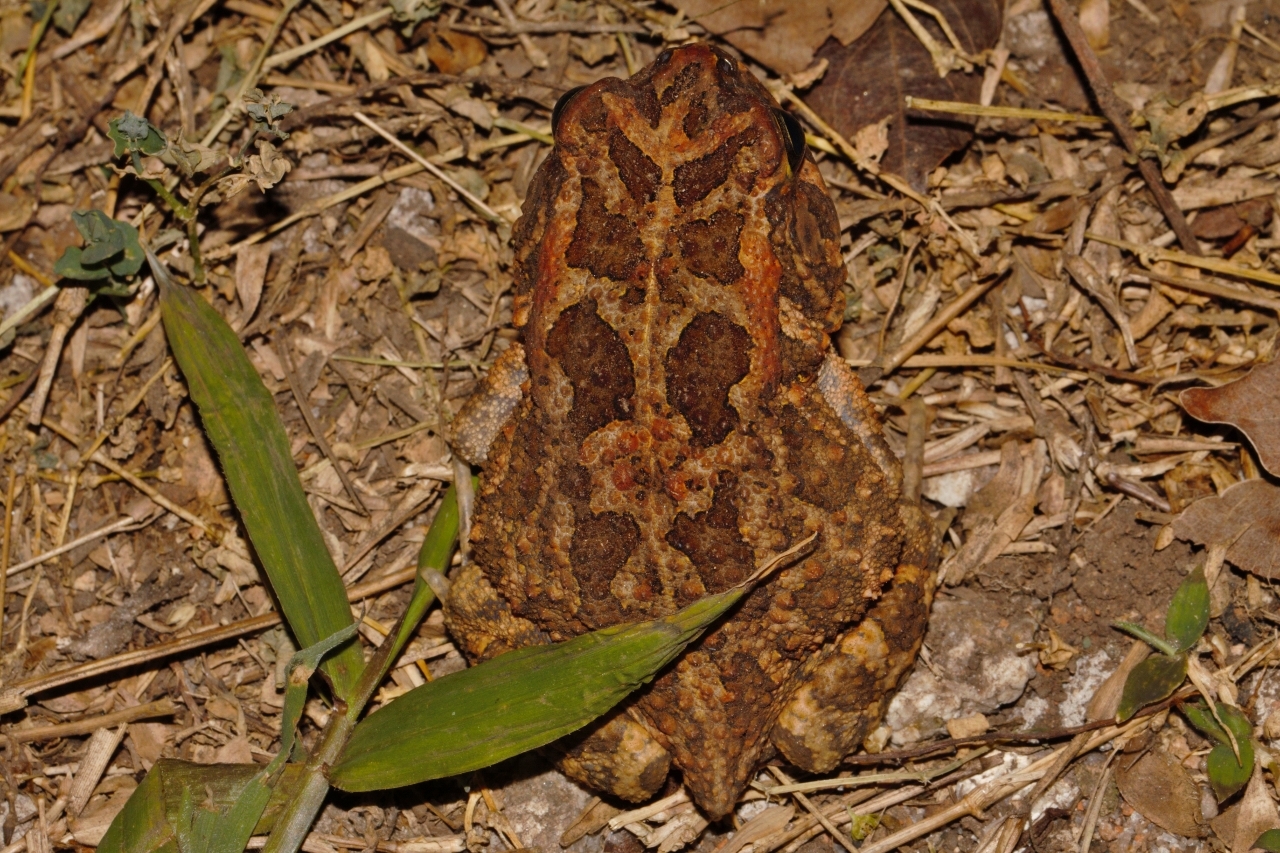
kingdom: Animalia
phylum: Chordata
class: Amphibia
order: Anura
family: Bufonidae
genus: Sclerophrys
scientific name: Sclerophrys gutturalis
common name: African common toad
